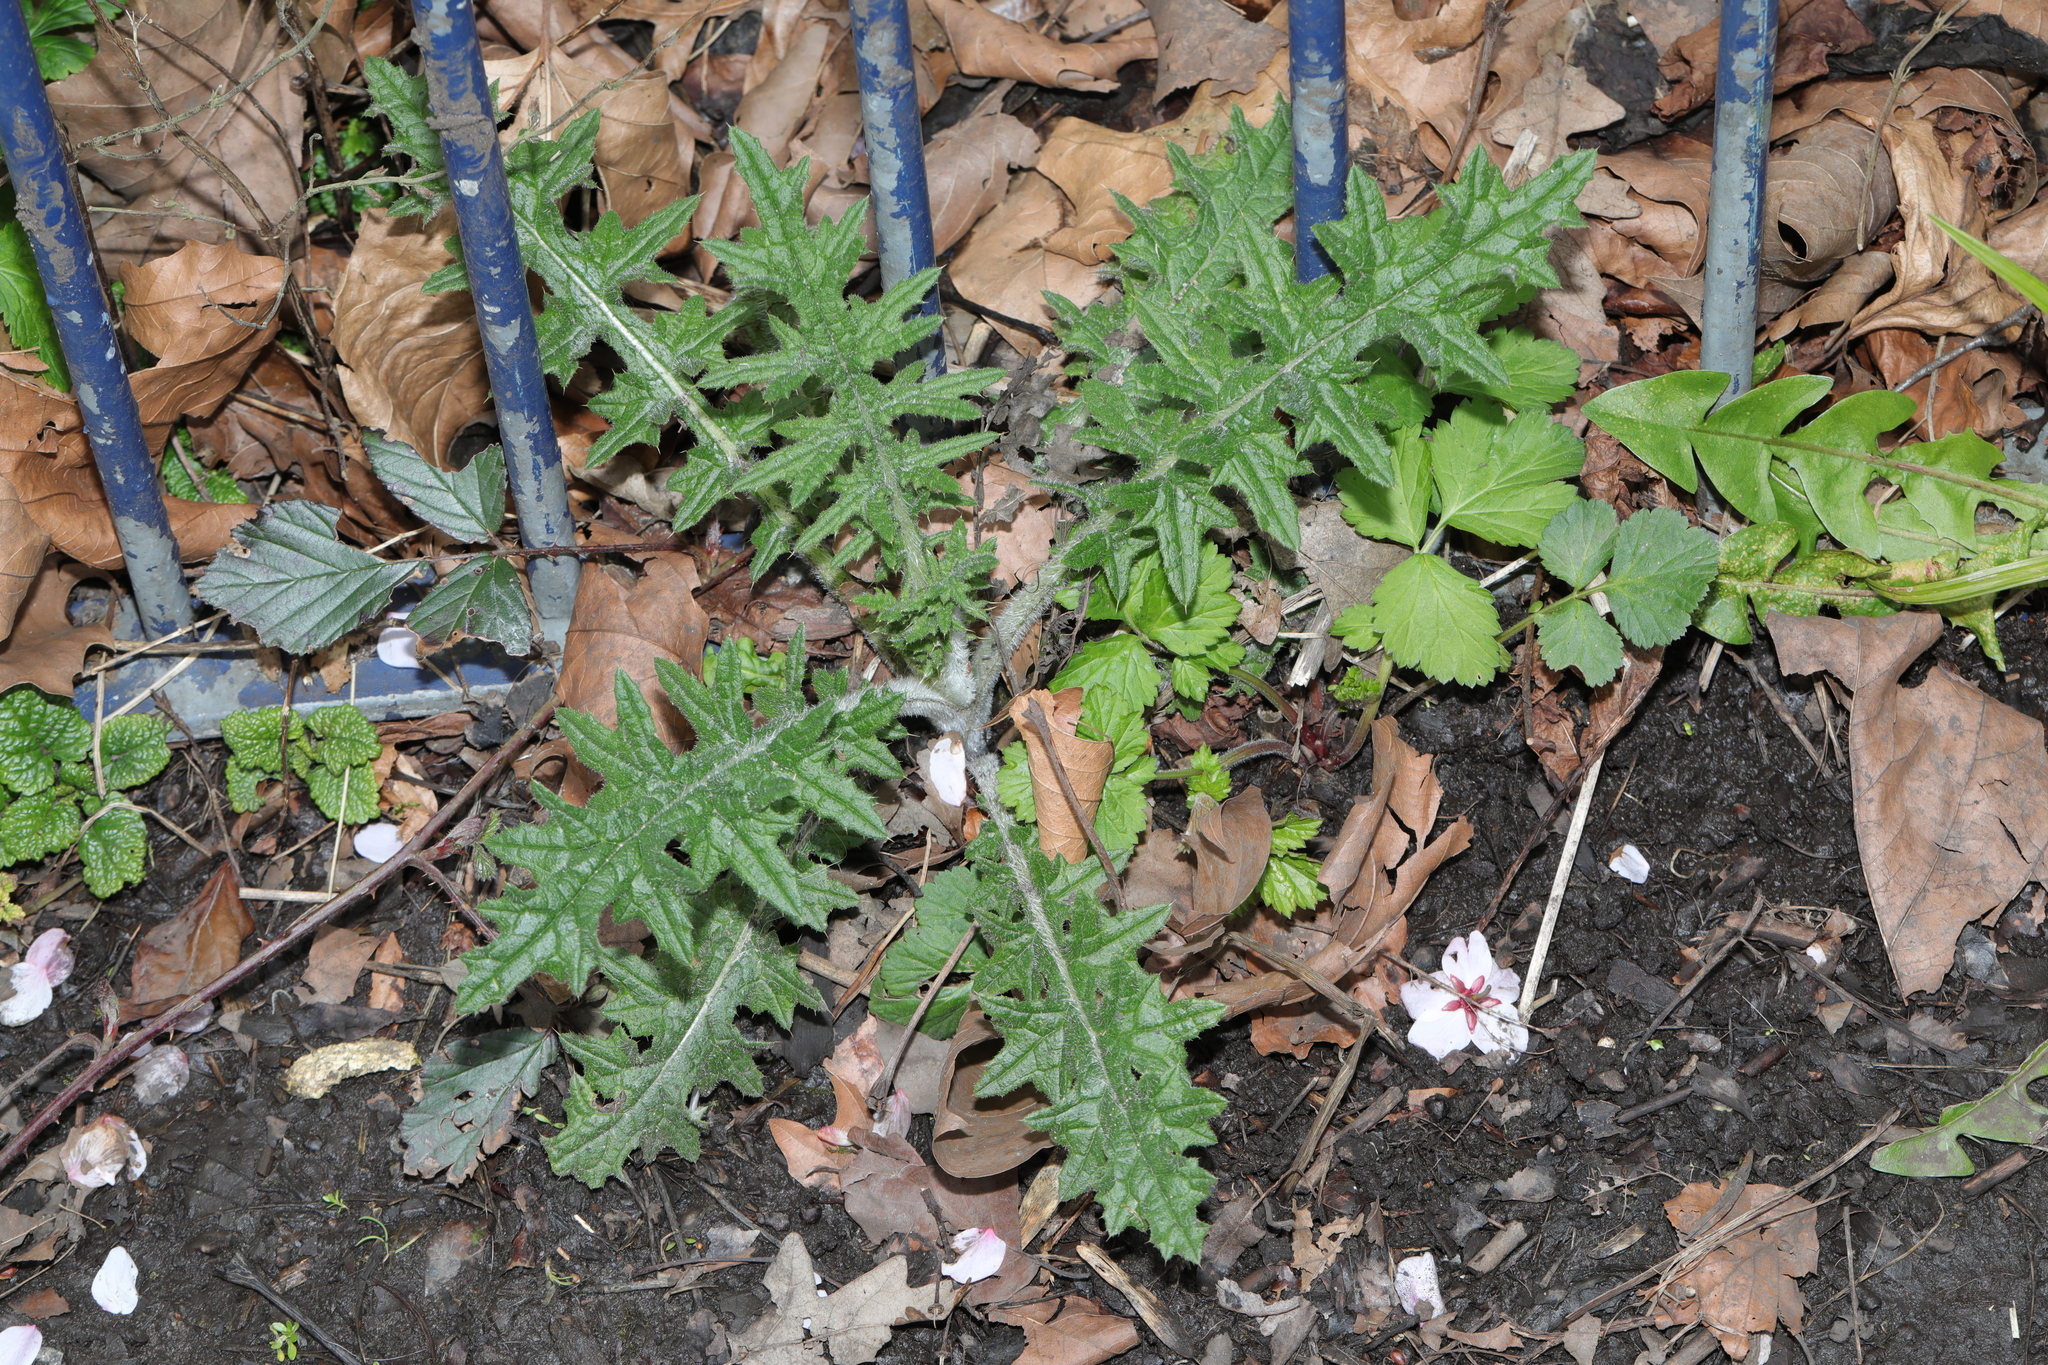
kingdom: Plantae
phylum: Tracheophyta
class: Magnoliopsida
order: Asterales
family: Asteraceae
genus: Cirsium
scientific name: Cirsium vulgare
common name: Bull thistle
